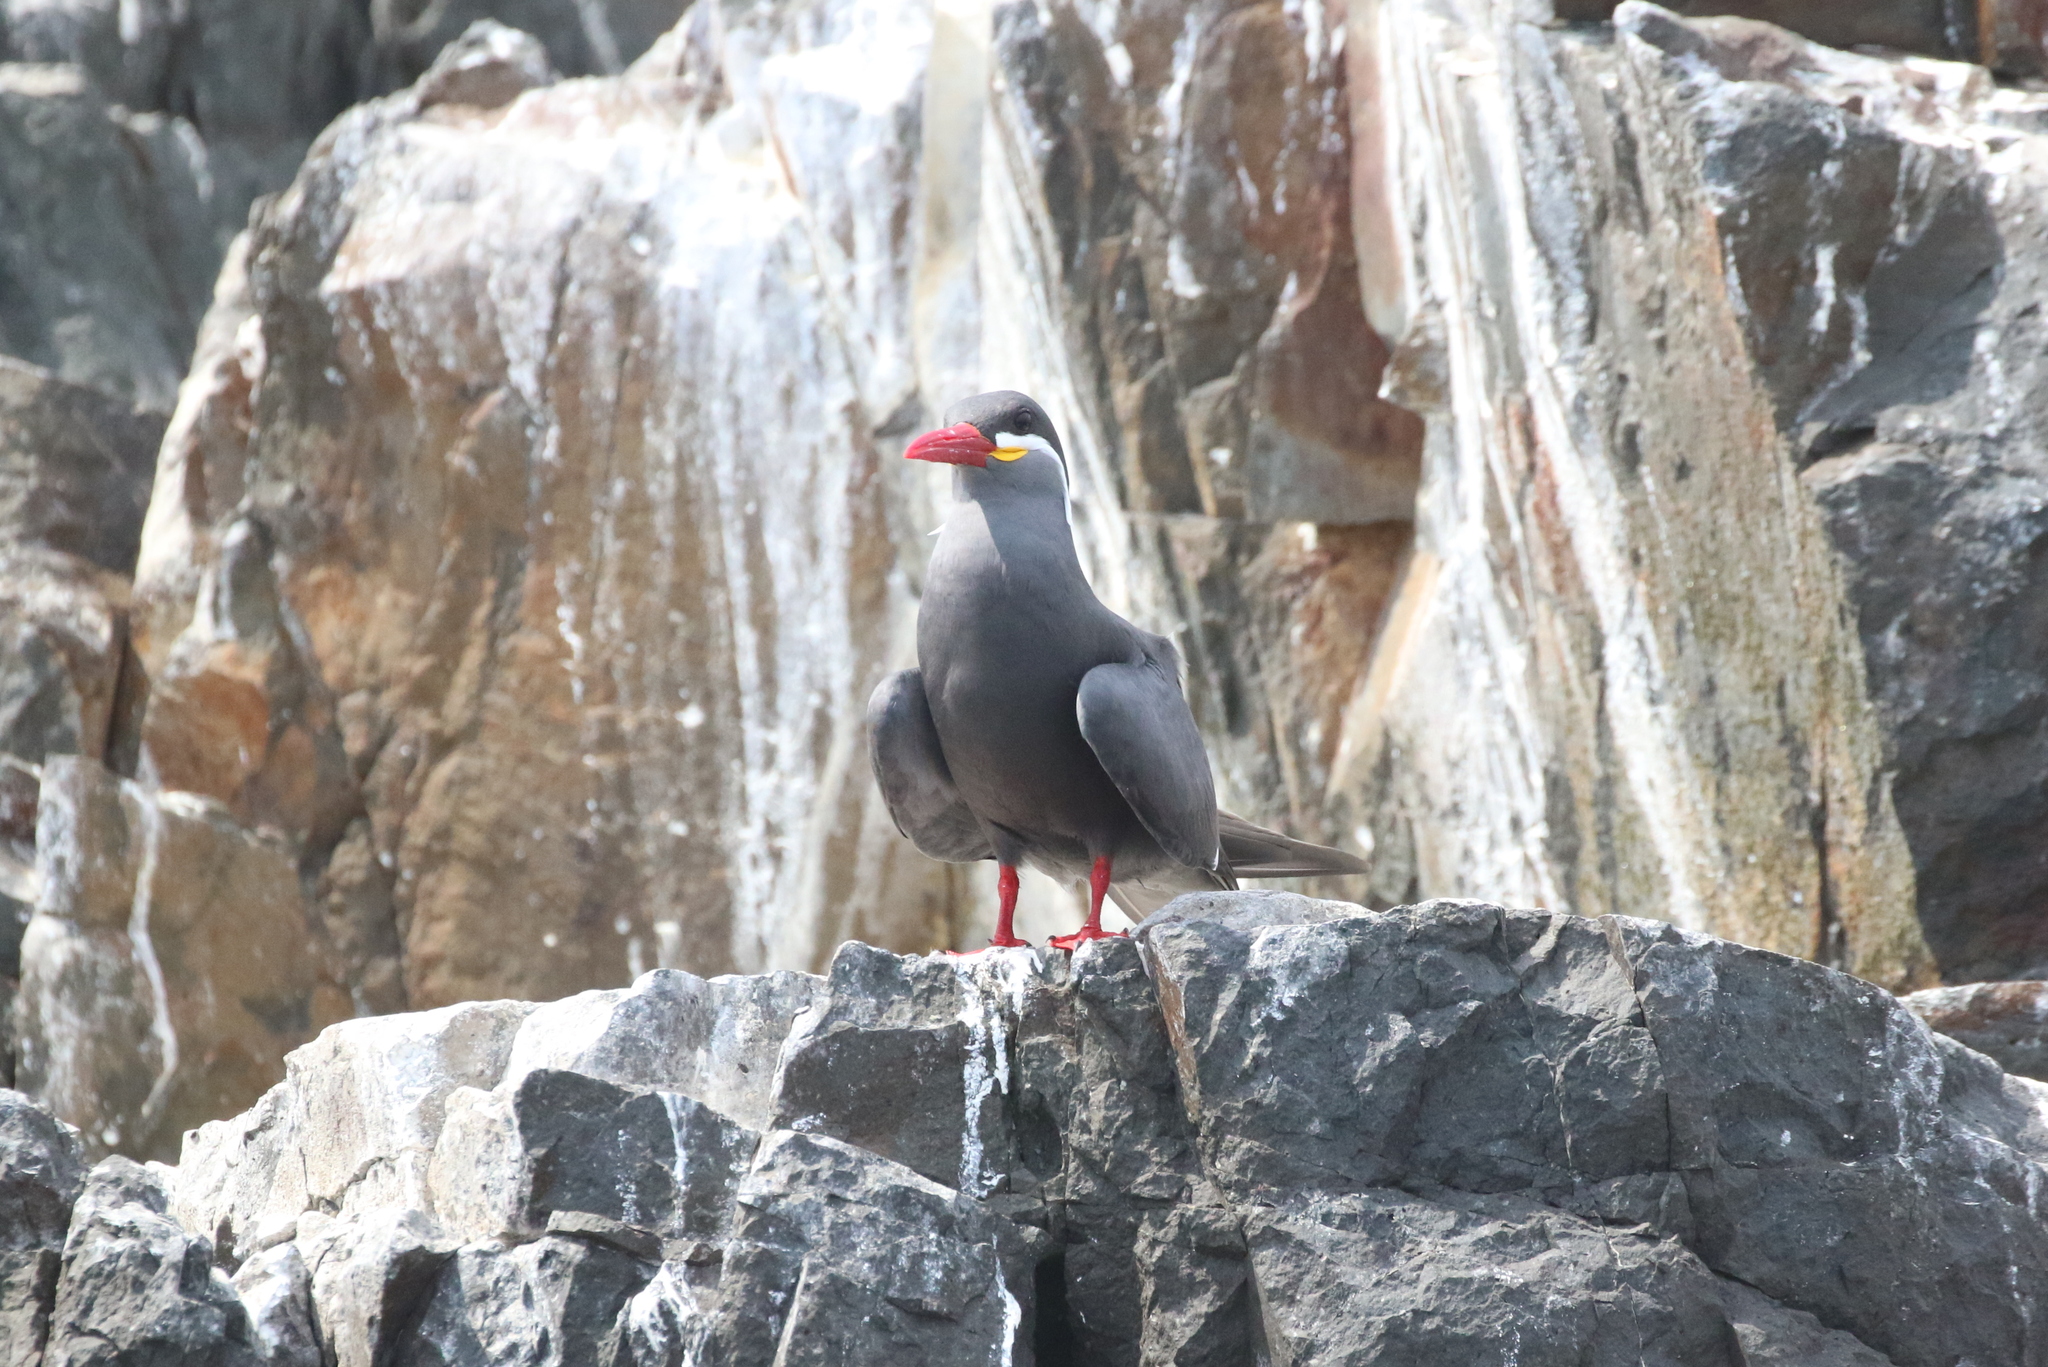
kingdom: Animalia
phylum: Chordata
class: Aves
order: Charadriiformes
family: Laridae
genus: Larosterna
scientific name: Larosterna inca
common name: Inca tern
